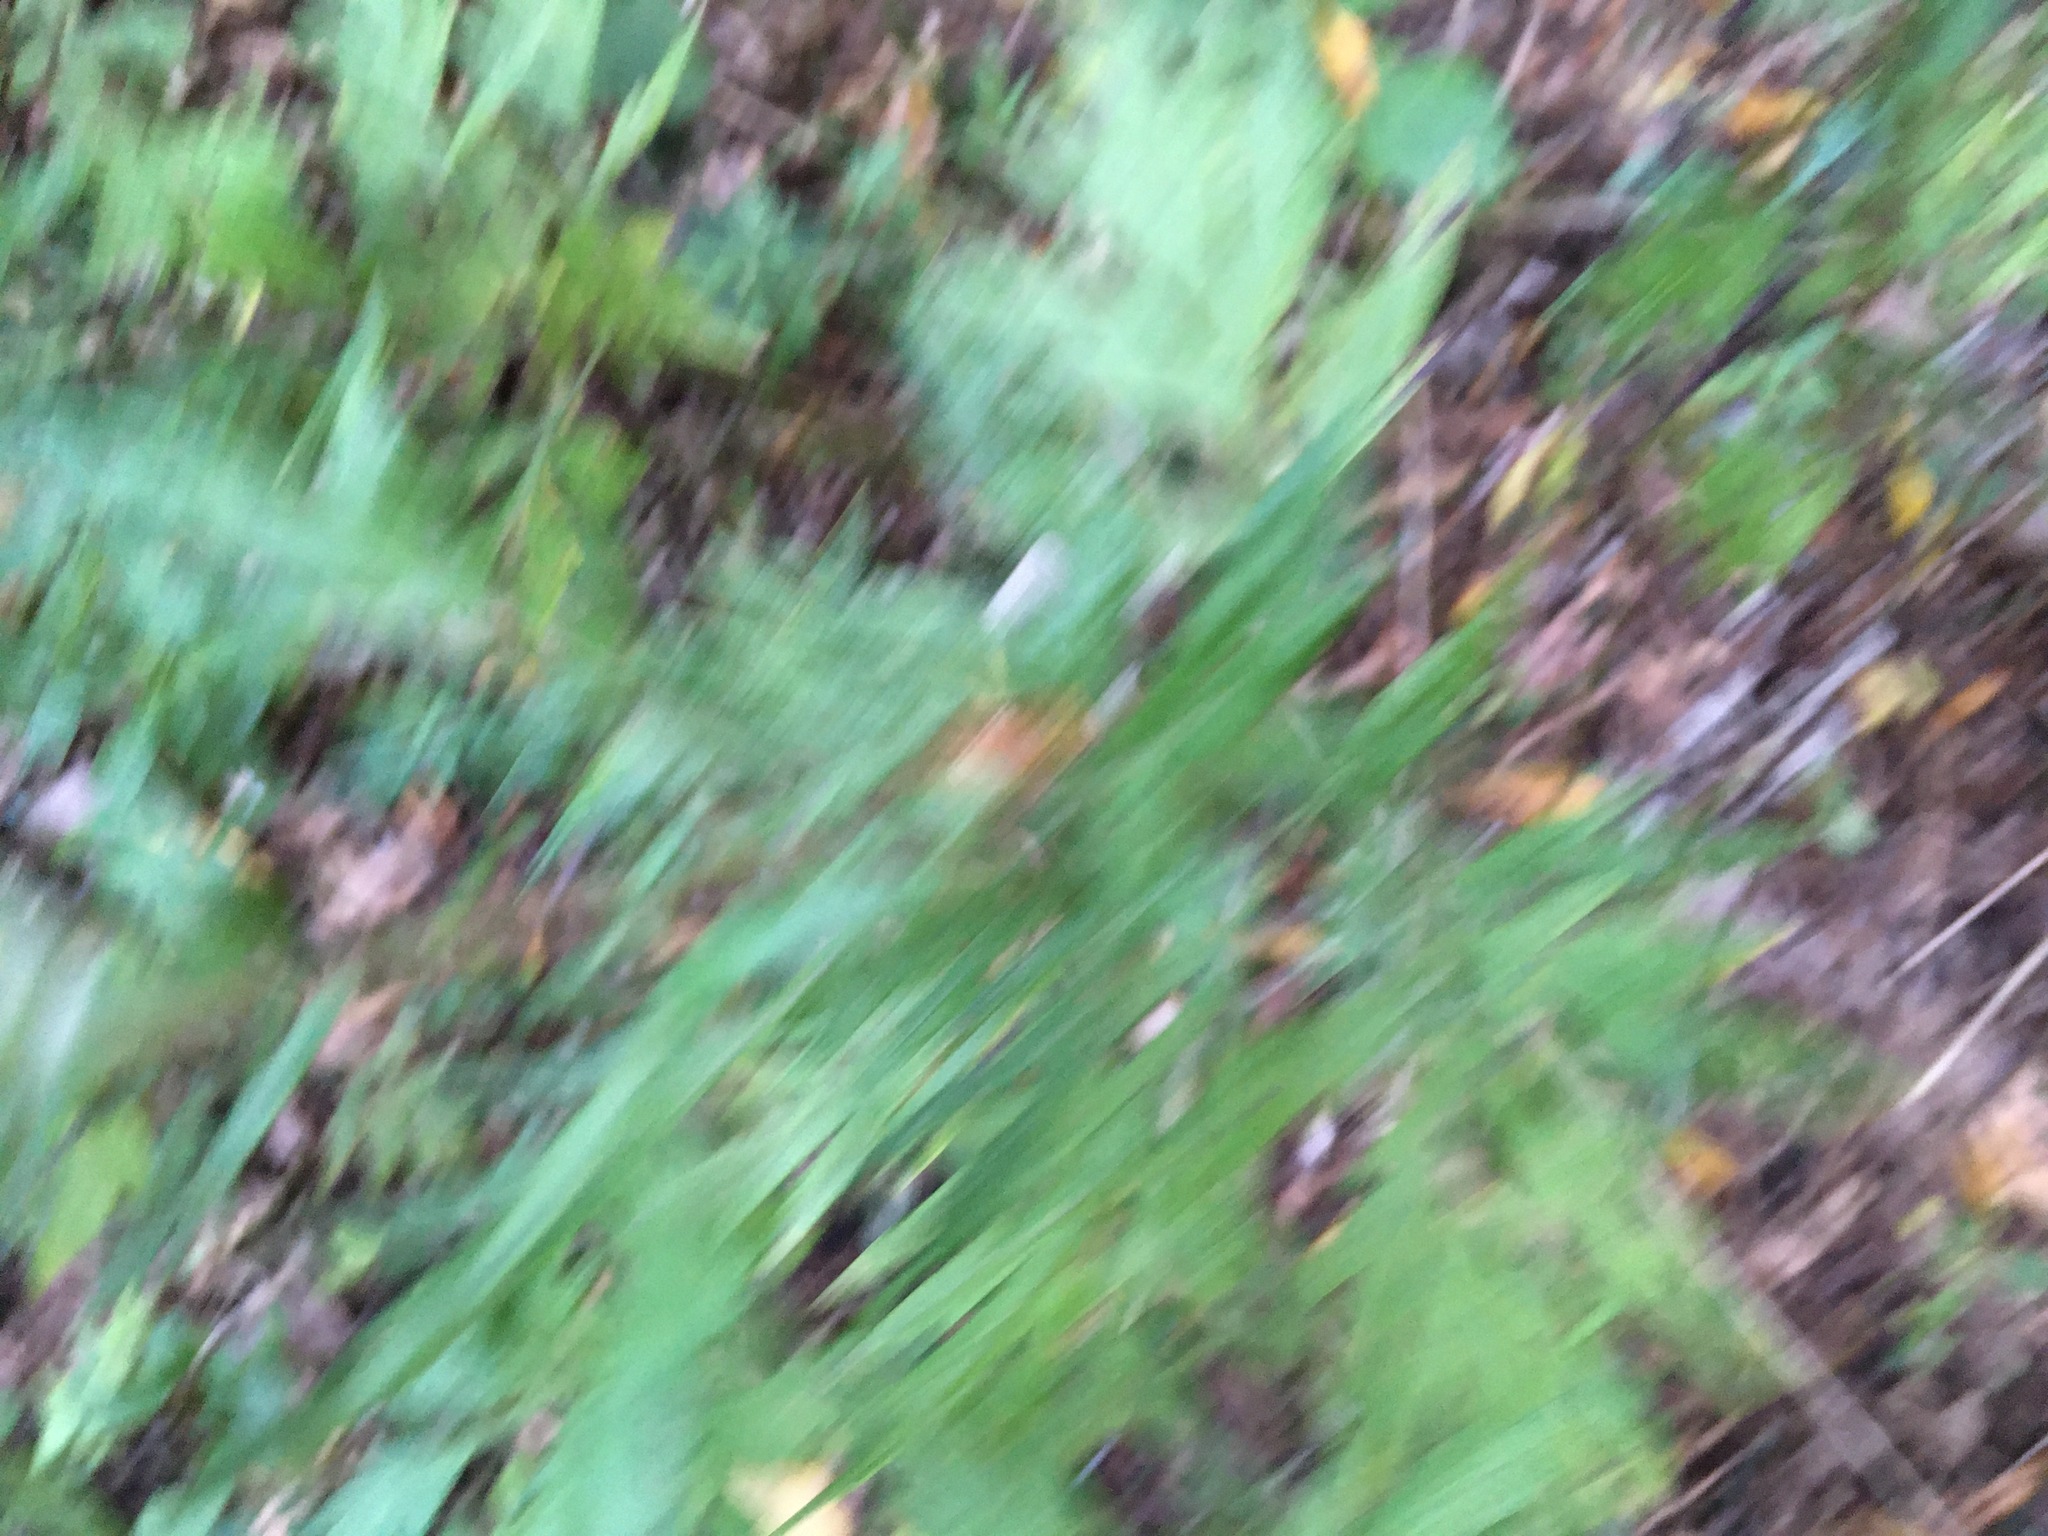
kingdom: Plantae
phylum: Tracheophyta
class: Magnoliopsida
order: Asterales
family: Asteraceae
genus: Artemisia
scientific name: Artemisia vulgaris
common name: Mugwort
